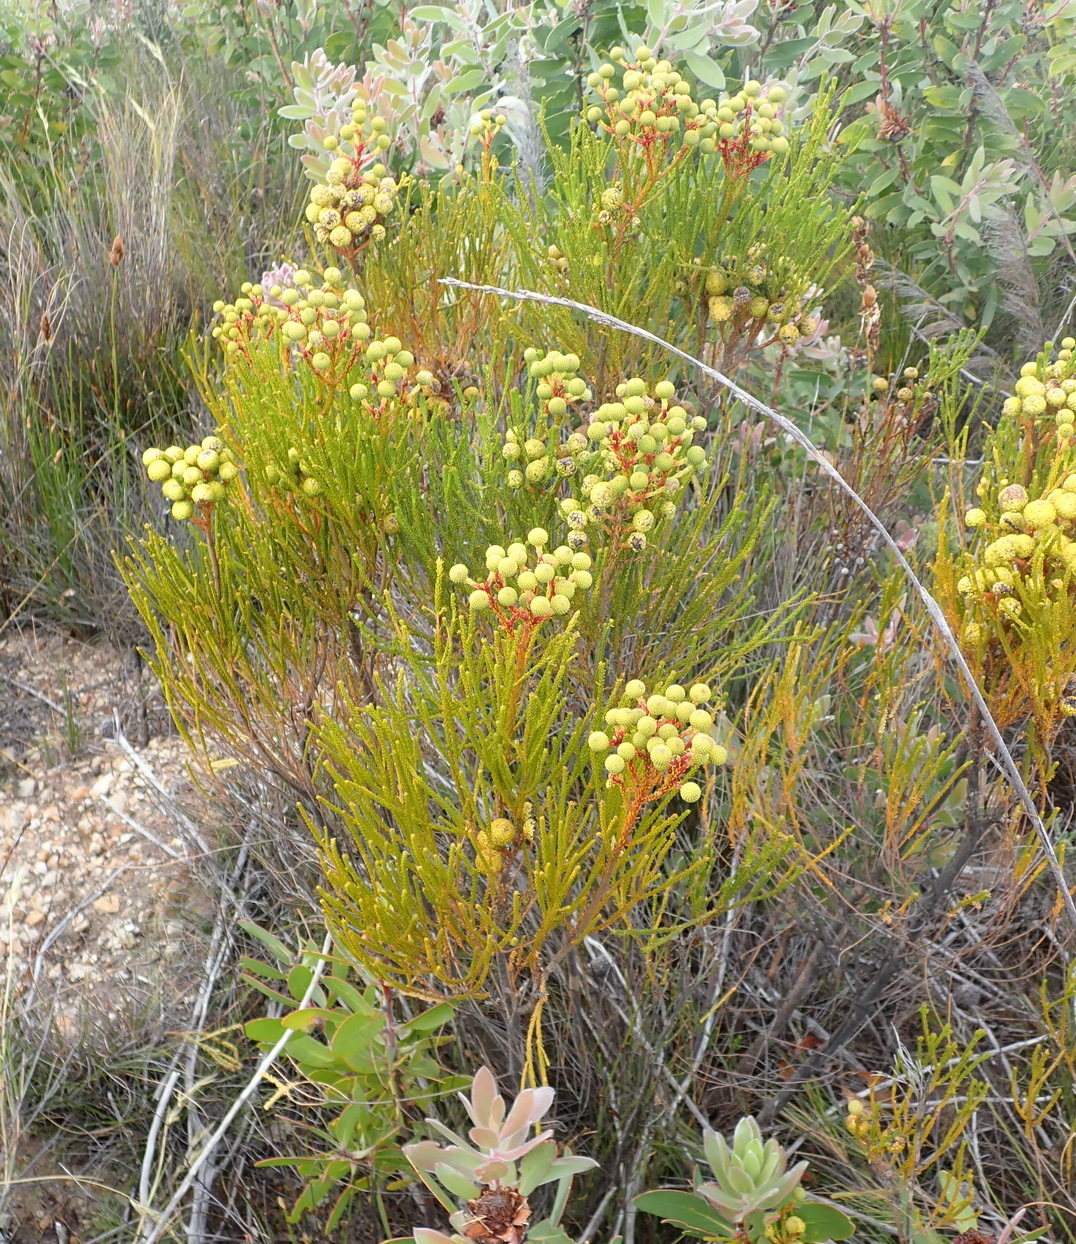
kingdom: Plantae
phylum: Tracheophyta
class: Magnoliopsida
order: Bruniales
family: Bruniaceae
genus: Berzelia
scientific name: Berzelia intermedia
